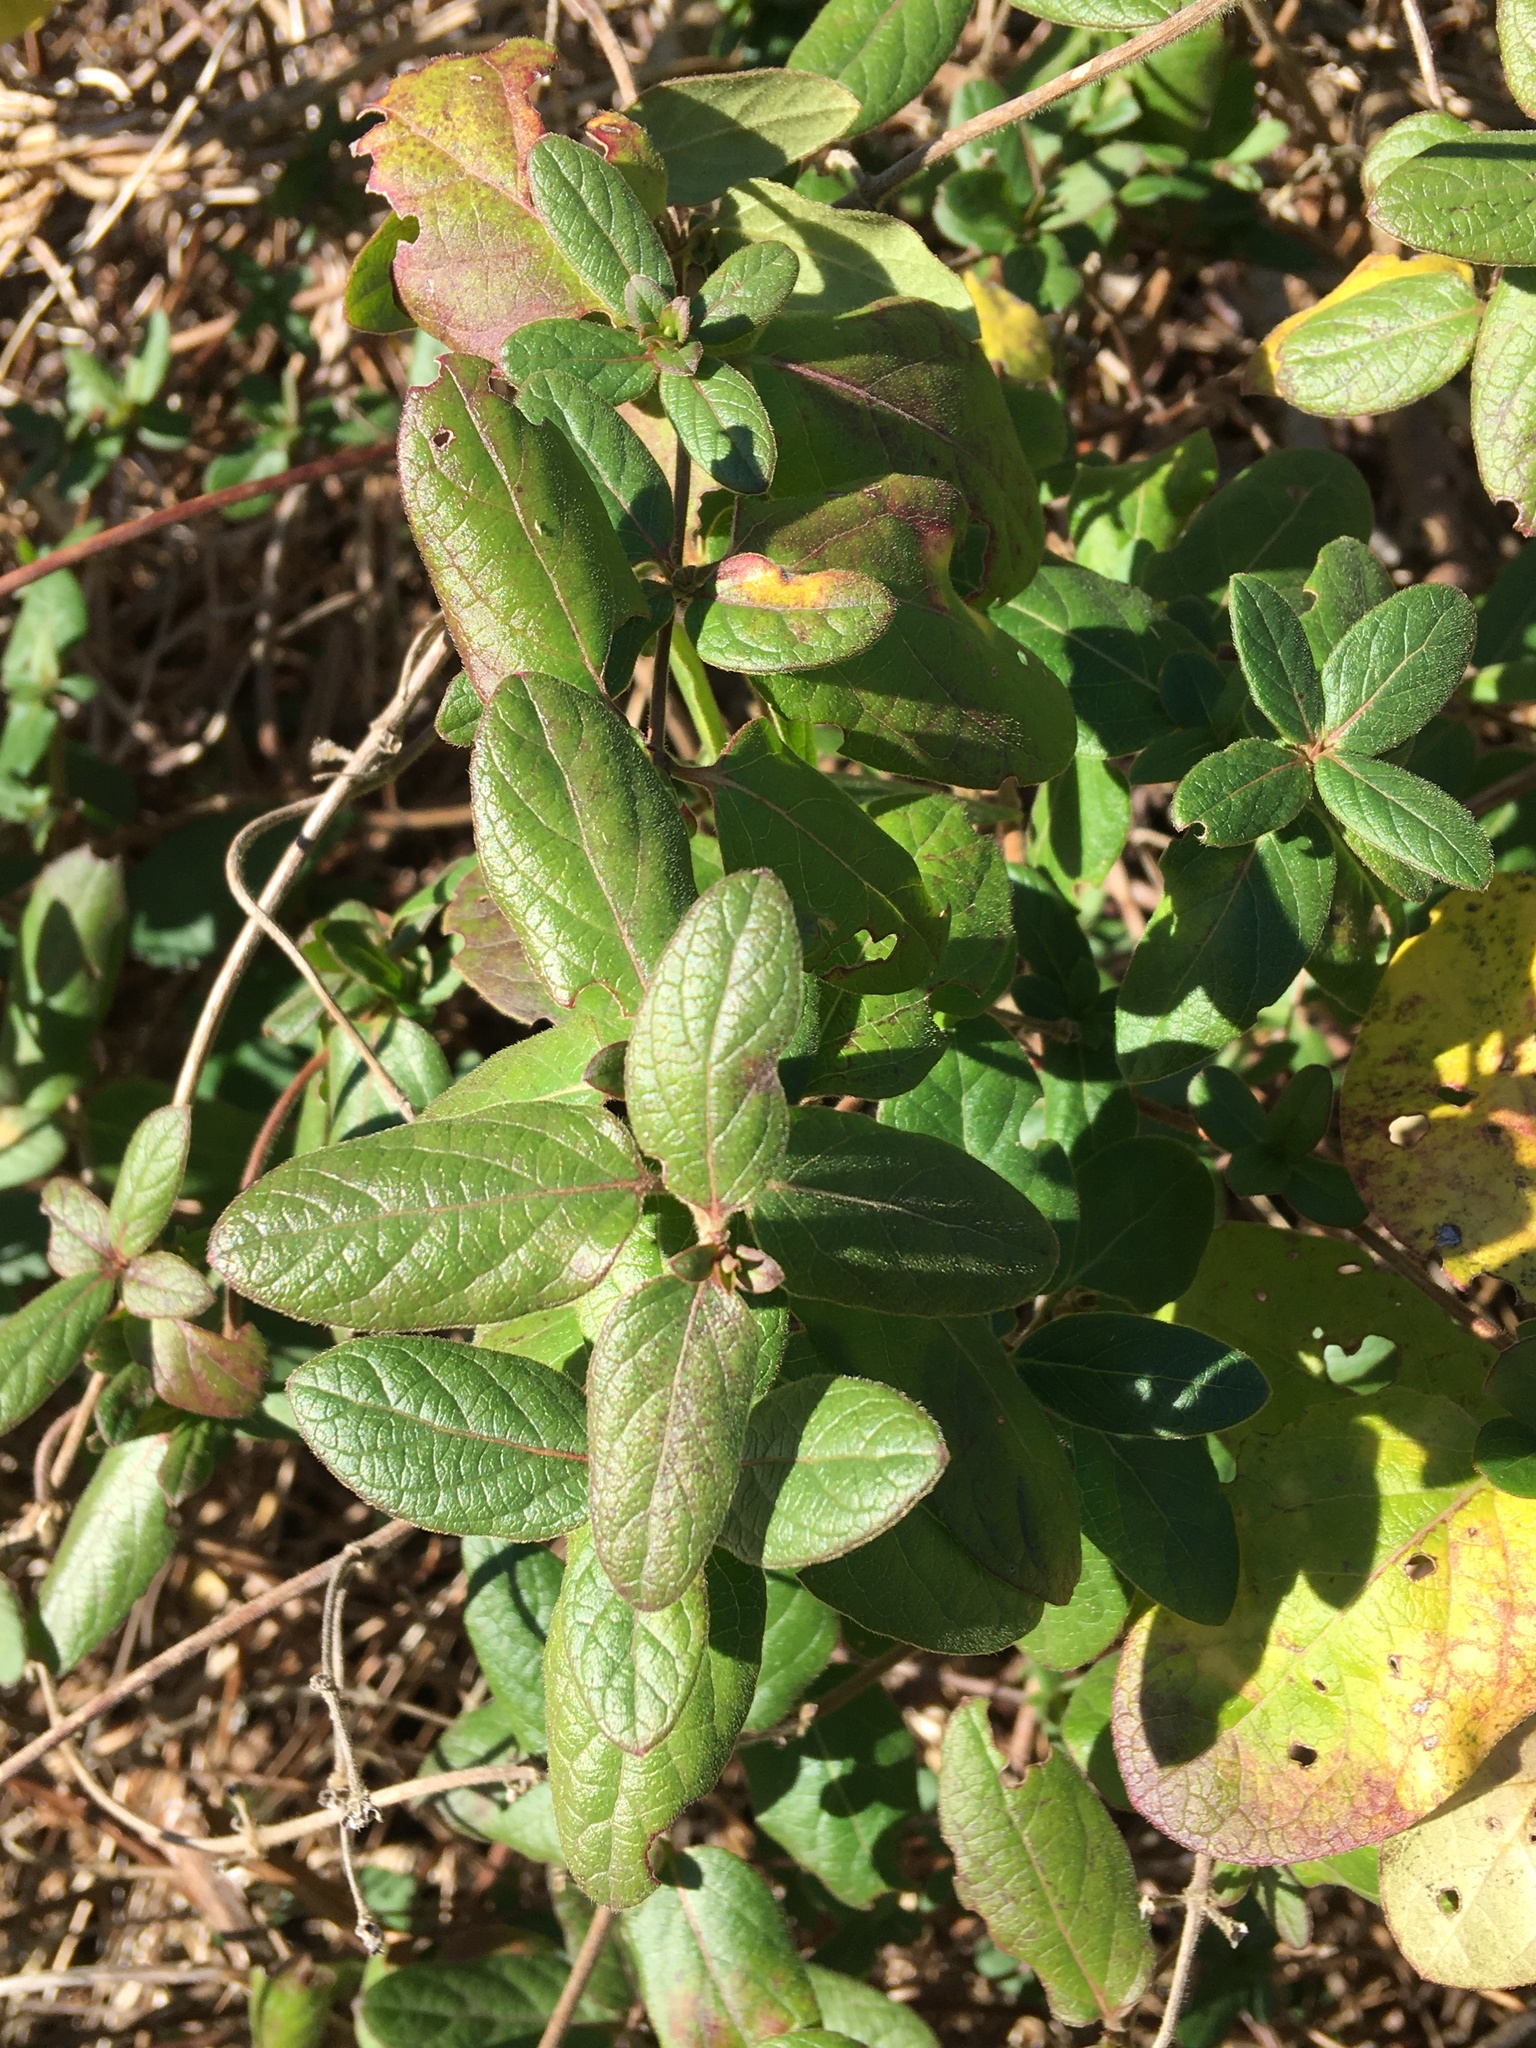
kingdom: Plantae
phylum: Tracheophyta
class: Magnoliopsida
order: Dipsacales
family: Caprifoliaceae
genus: Lonicera
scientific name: Lonicera japonica
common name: Japanese honeysuckle
